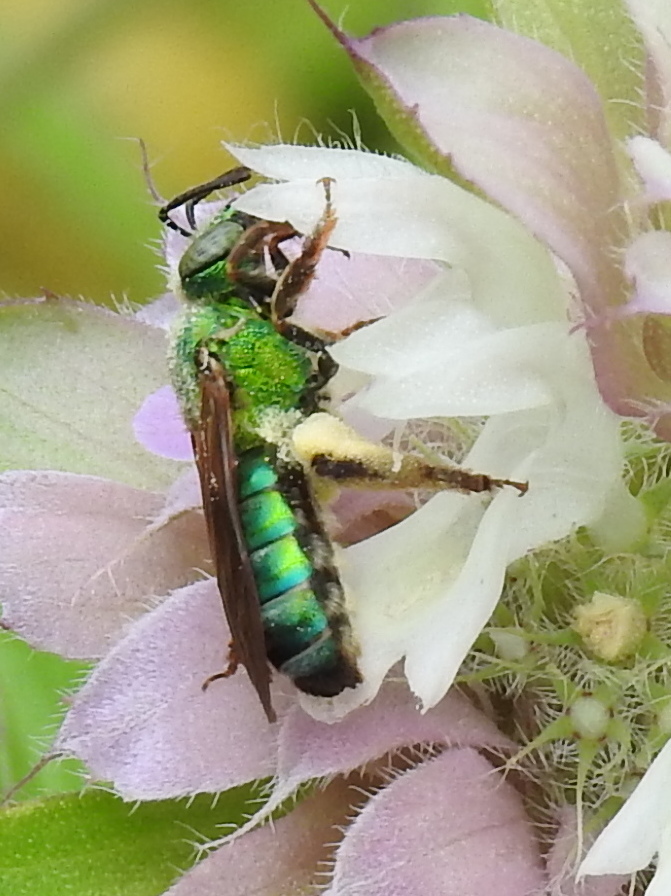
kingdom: Animalia
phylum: Arthropoda
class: Insecta
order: Hymenoptera
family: Halictidae
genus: Agapostemon
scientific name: Agapostemon splendens
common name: Brown-winged striped sweat bee
